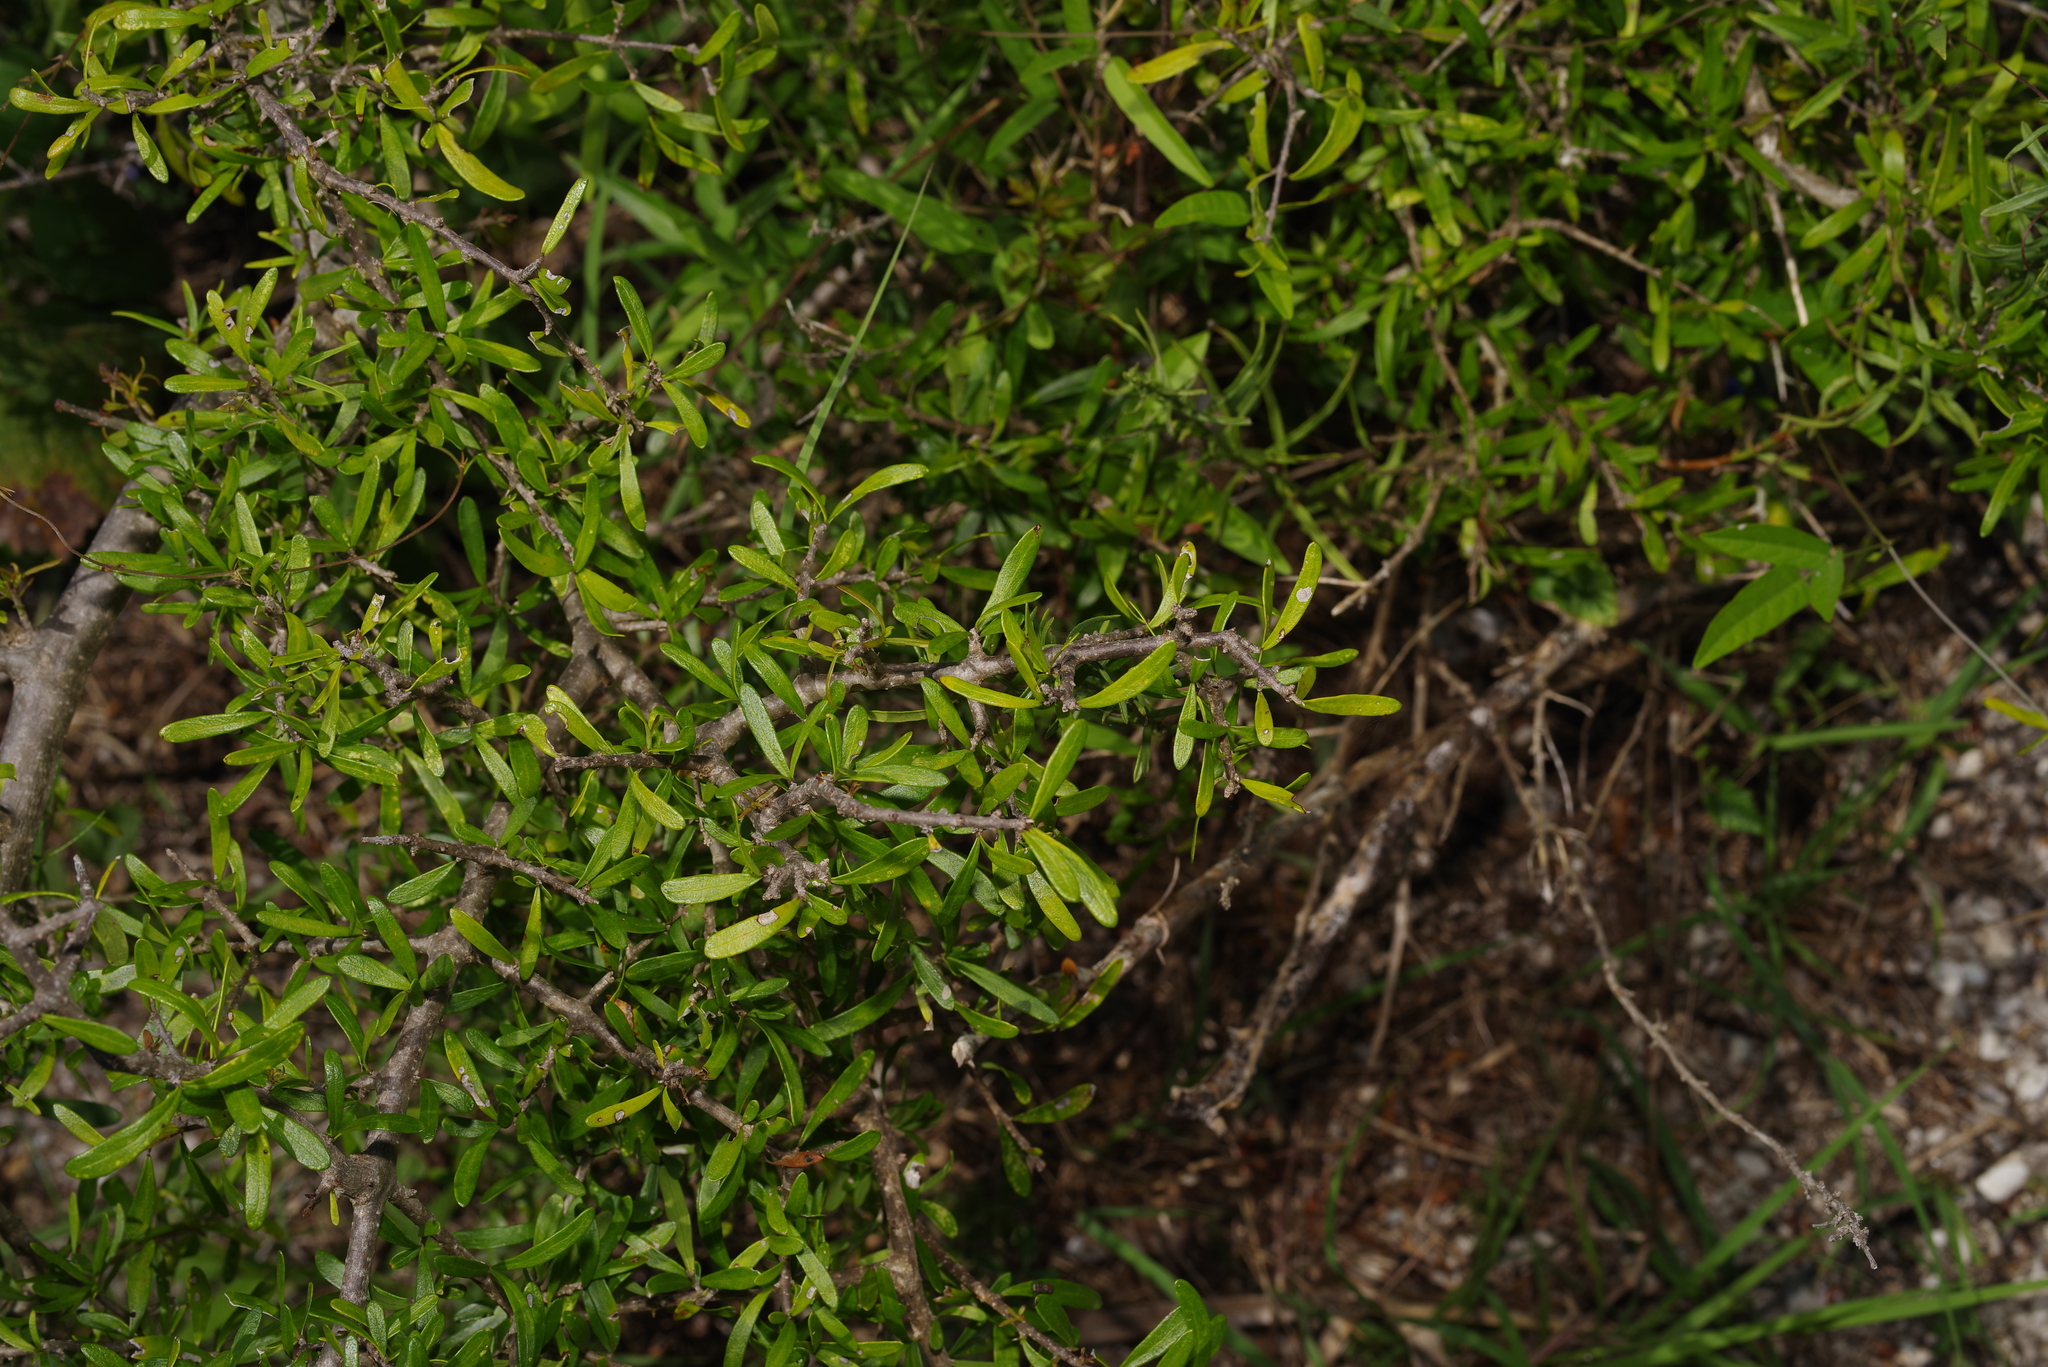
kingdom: Plantae
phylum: Tracheophyta
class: Magnoliopsida
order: Lamiales
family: Oleaceae
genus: Forestiera
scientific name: Forestiera angustifolia
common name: Elbowbush
